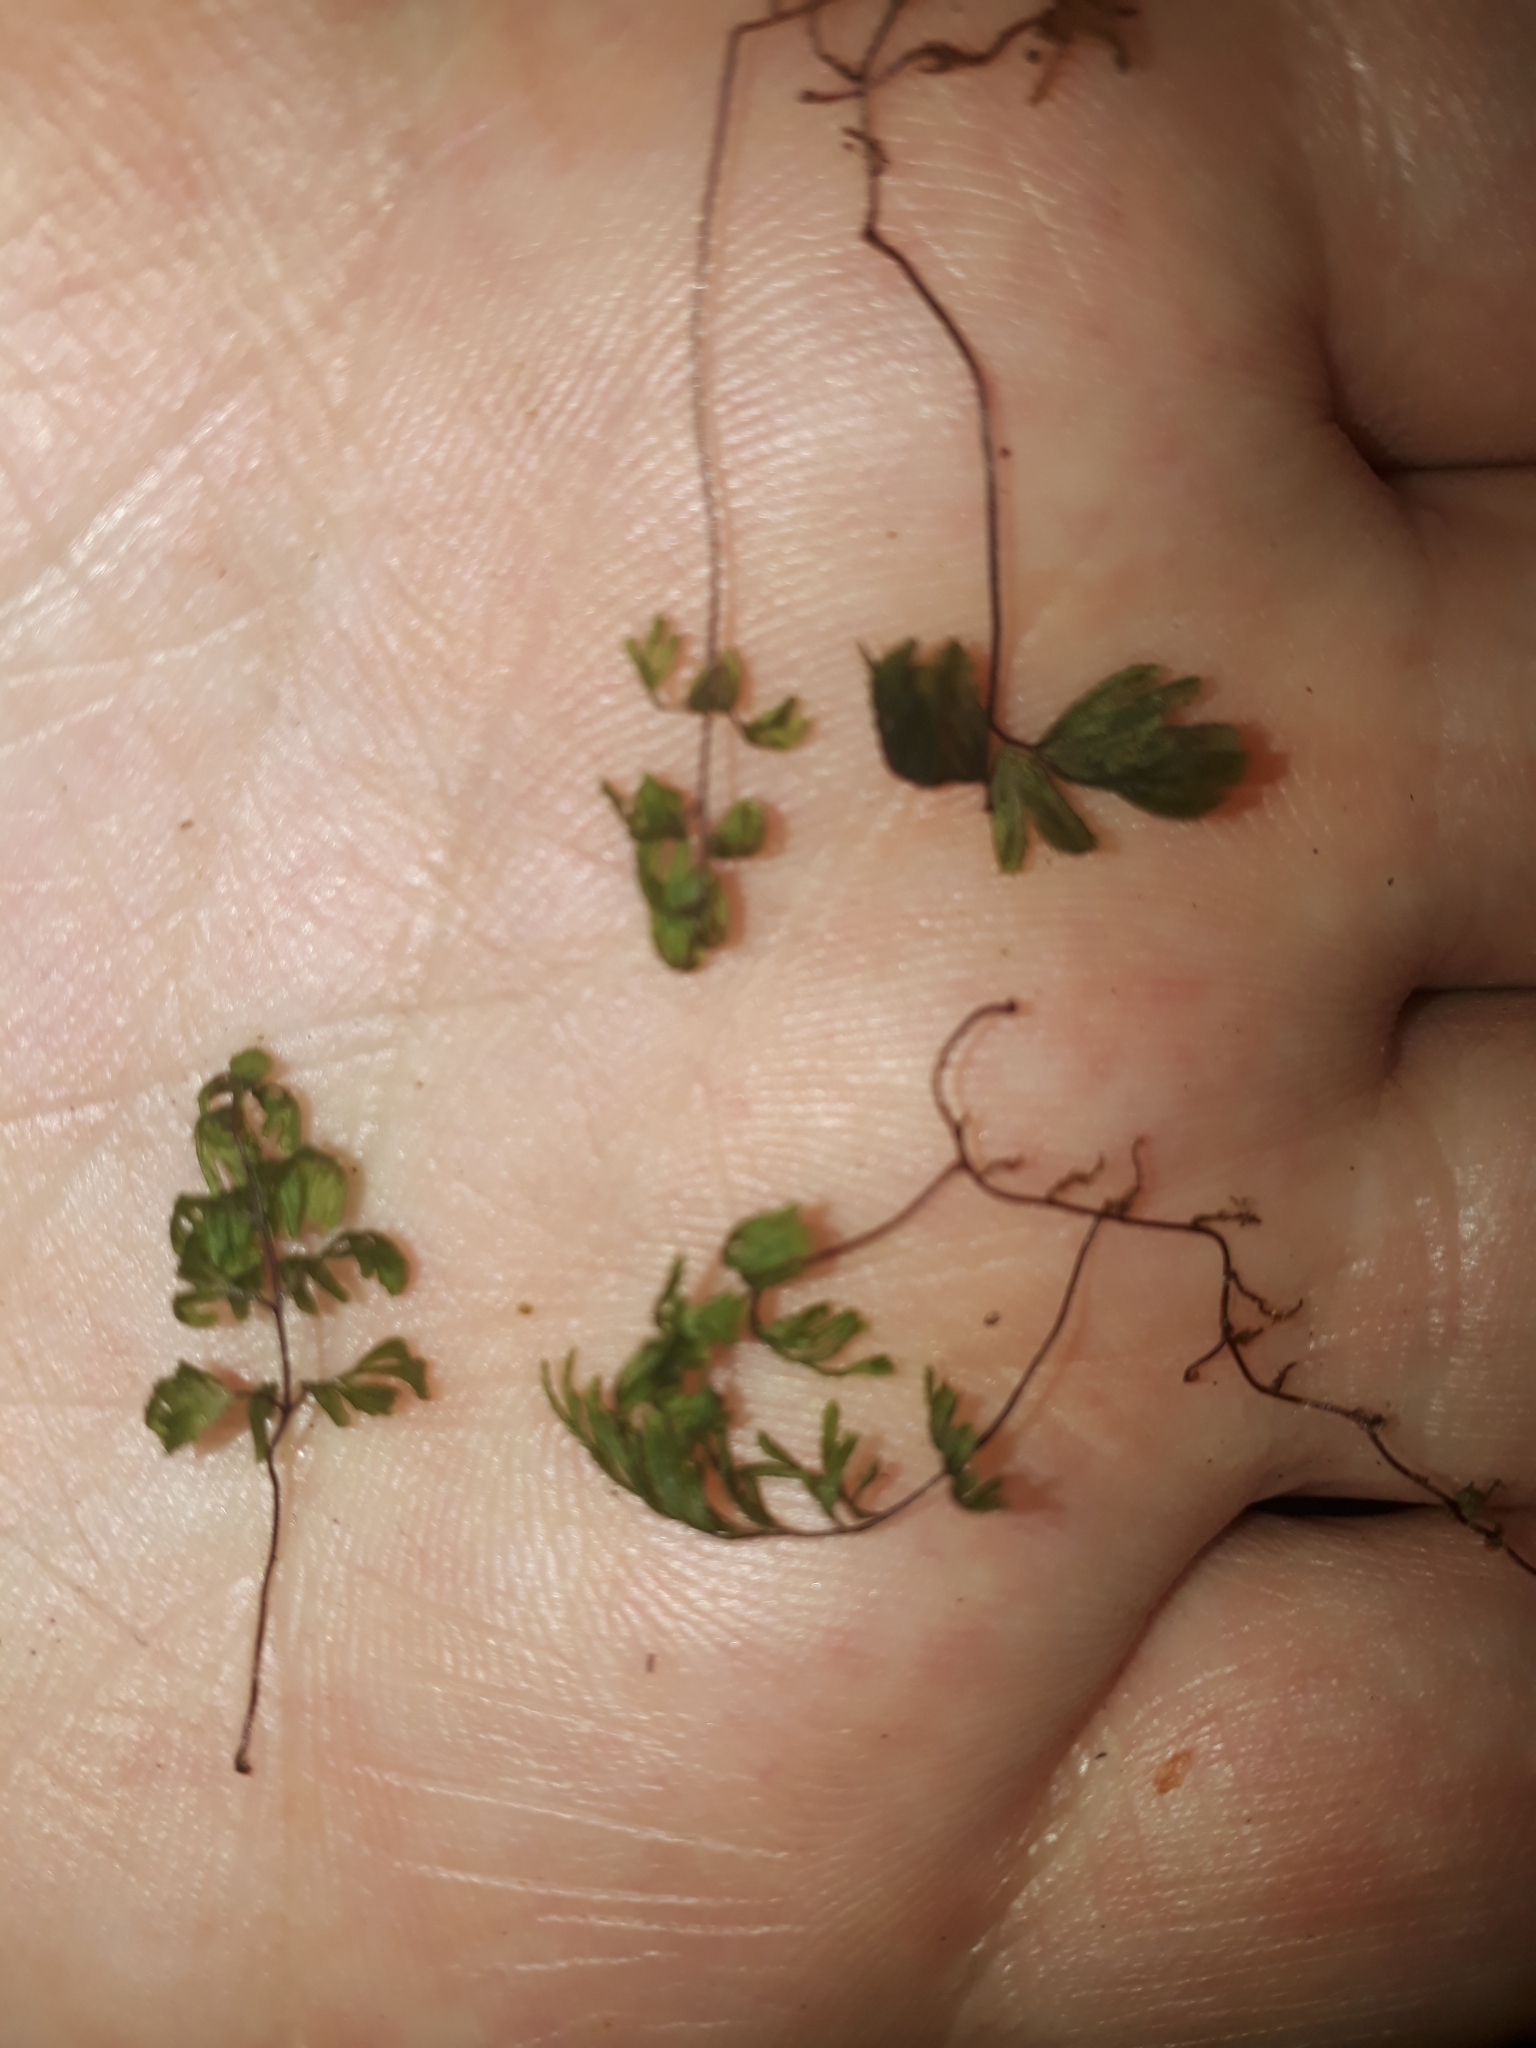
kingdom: Plantae
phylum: Tracheophyta
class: Polypodiopsida
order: Hymenophyllales
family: Hymenophyllaceae
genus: Hymenophyllum
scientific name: Hymenophyllum revolutum
